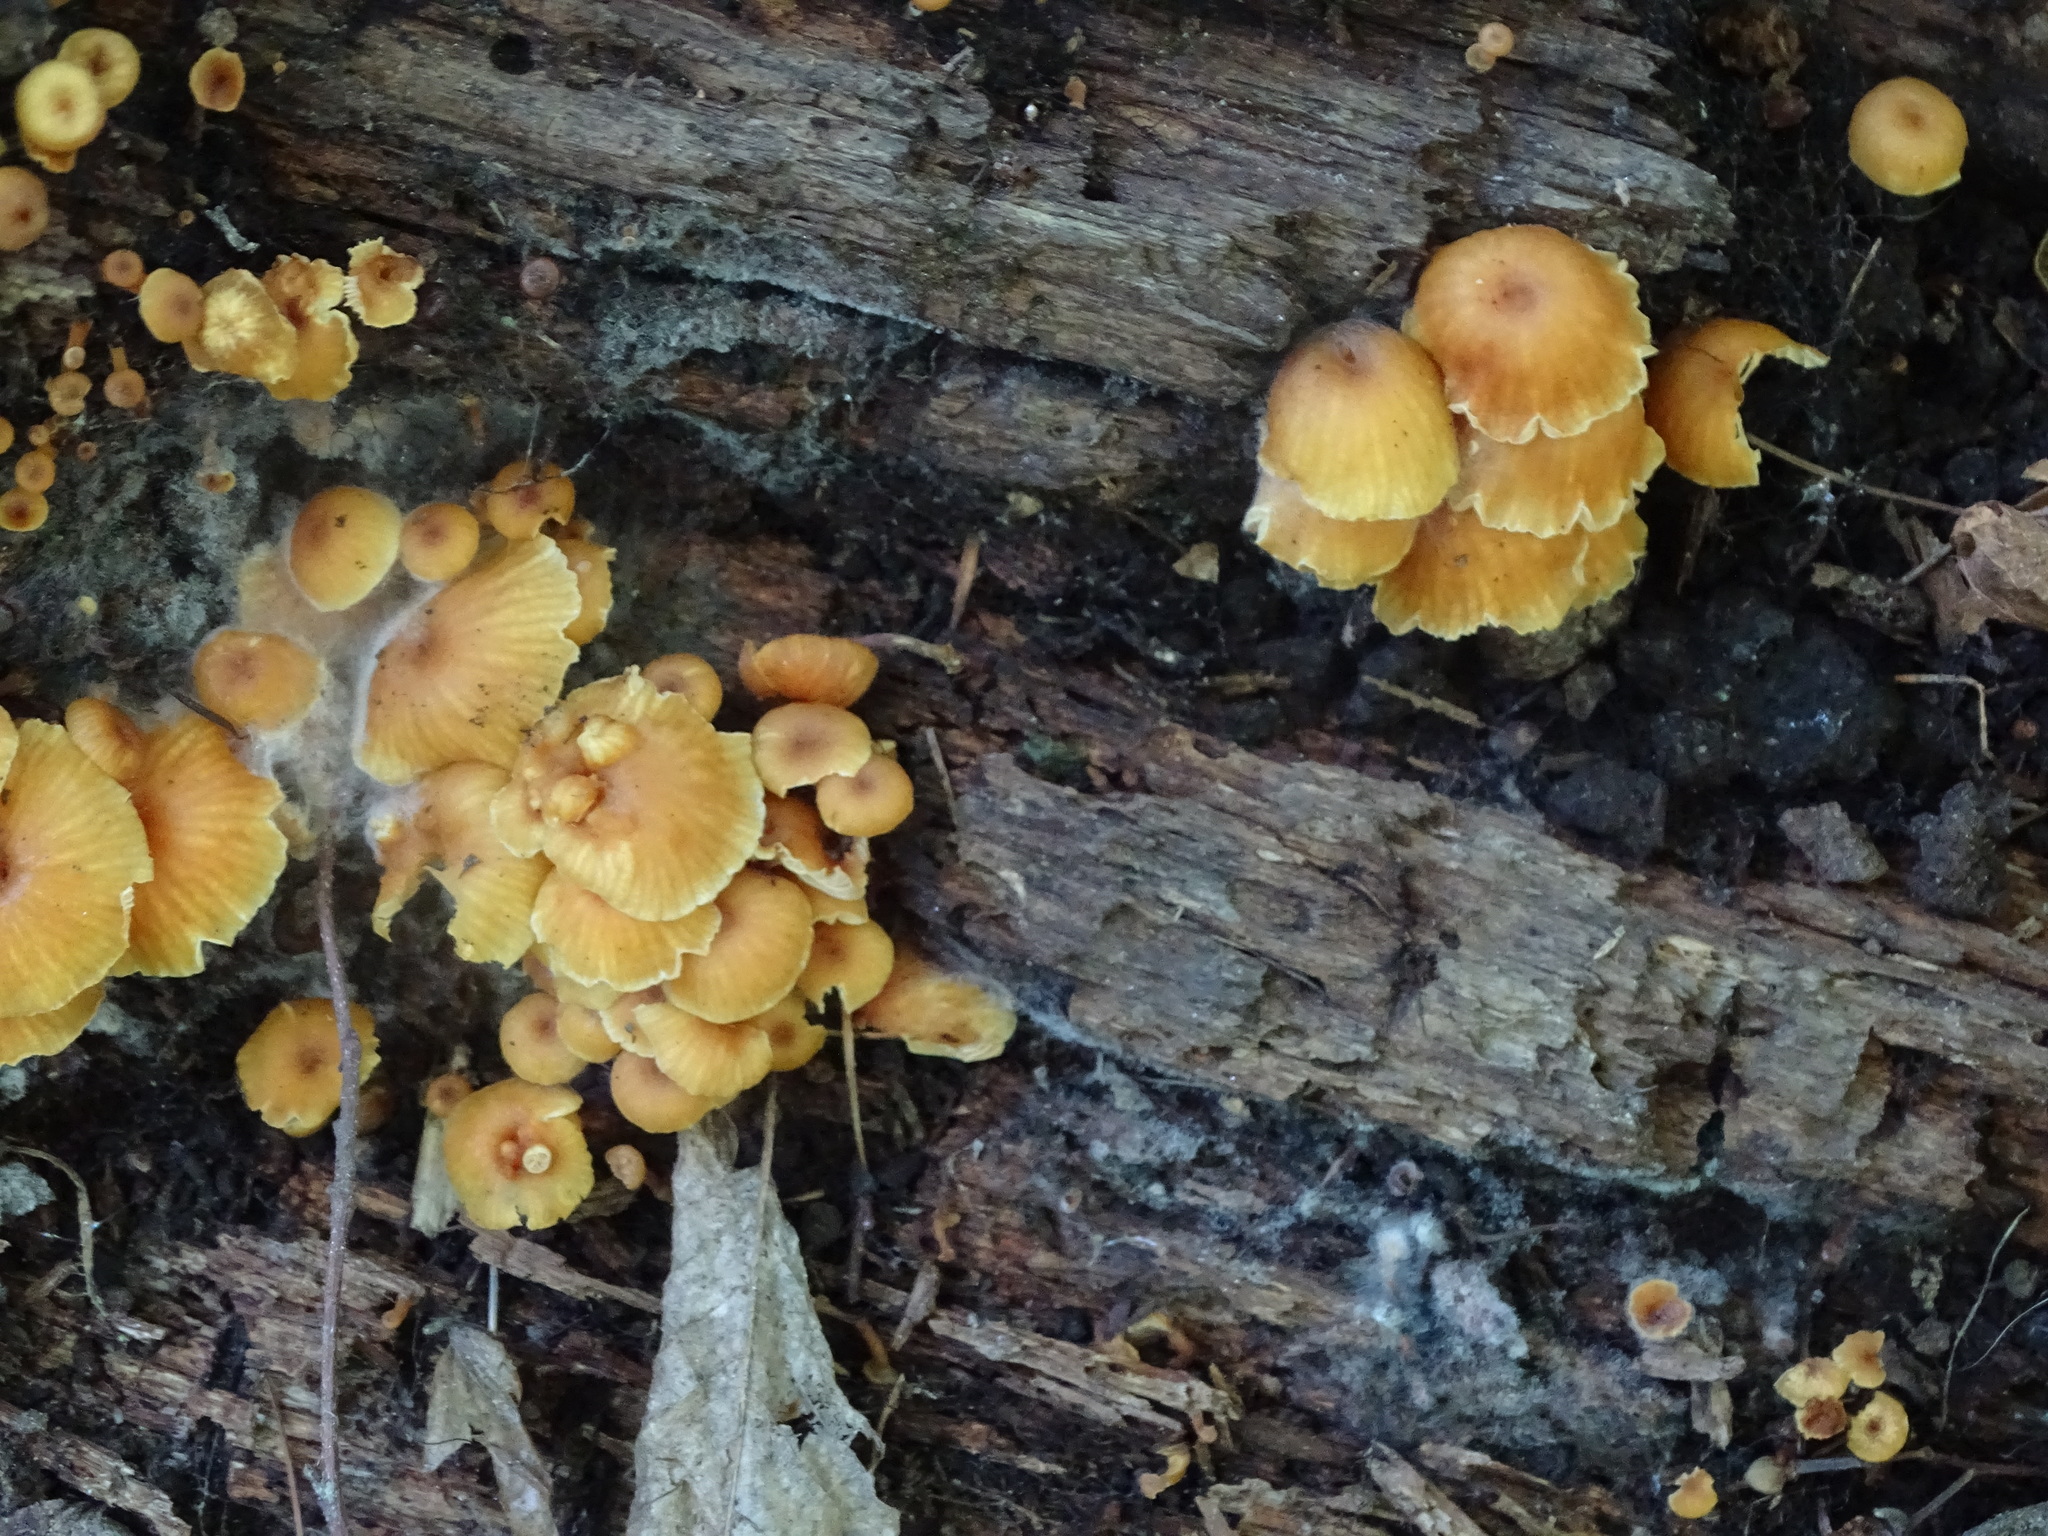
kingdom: Fungi
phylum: Basidiomycota
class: Agaricomycetes
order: Agaricales
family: Mycenaceae
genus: Xeromphalina
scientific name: Xeromphalina campanella
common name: Pinewood gingertail
